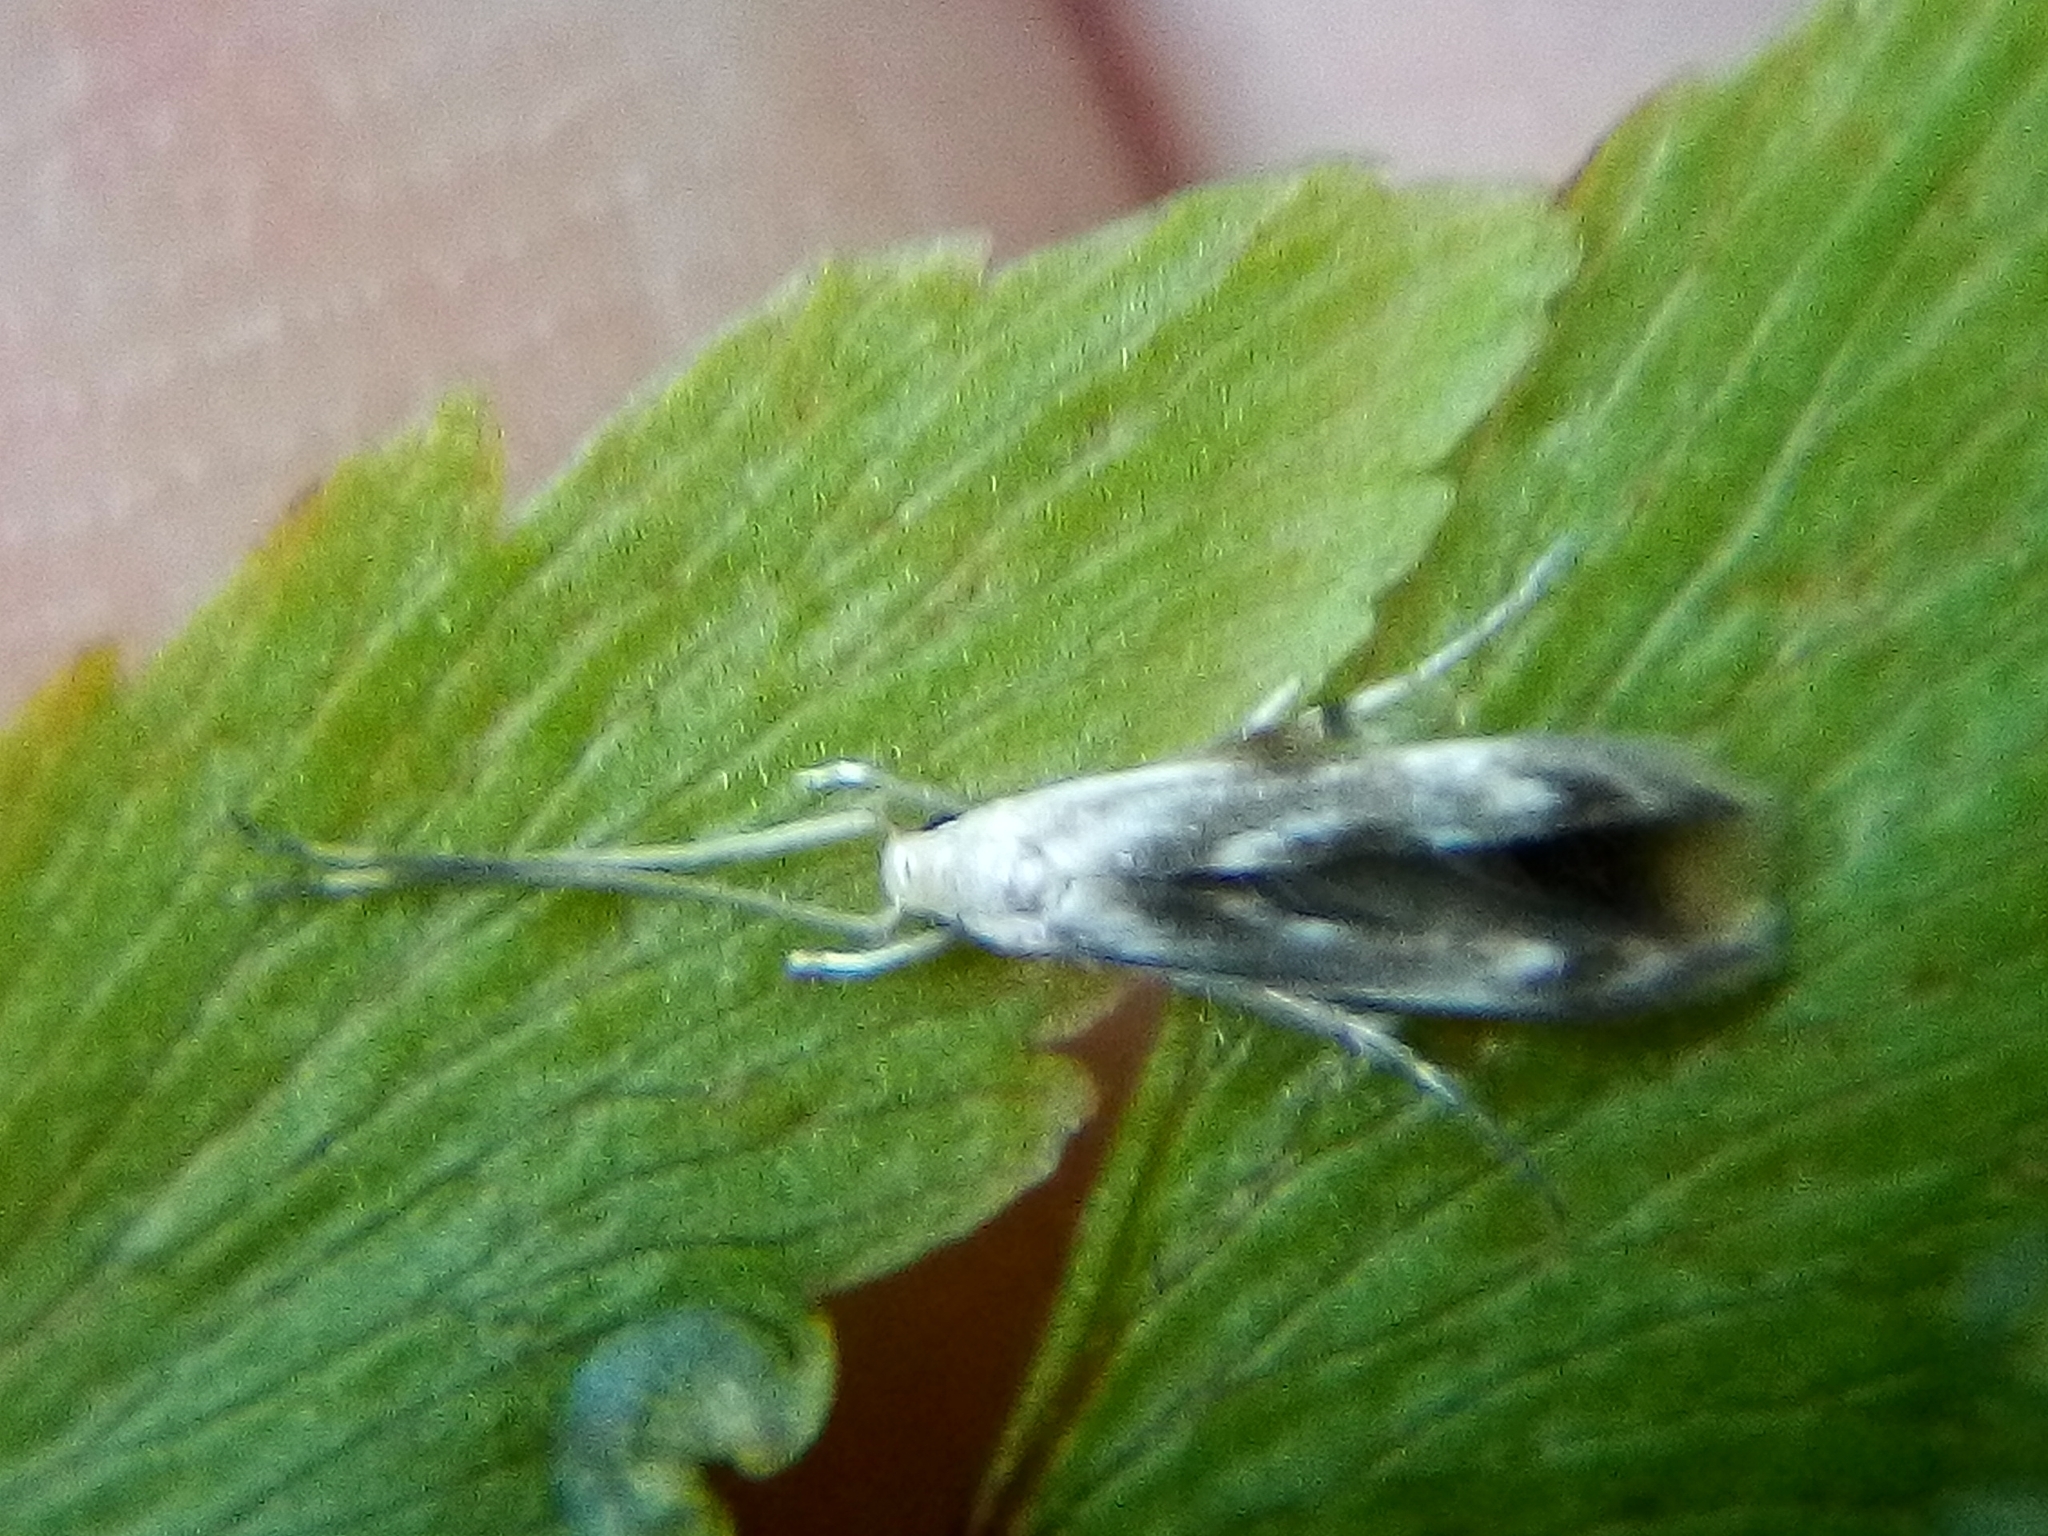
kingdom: Animalia
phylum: Arthropoda
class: Insecta
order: Lepidoptera
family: Stathmopodidae
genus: Thylacosceles
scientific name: Thylacosceles radians
